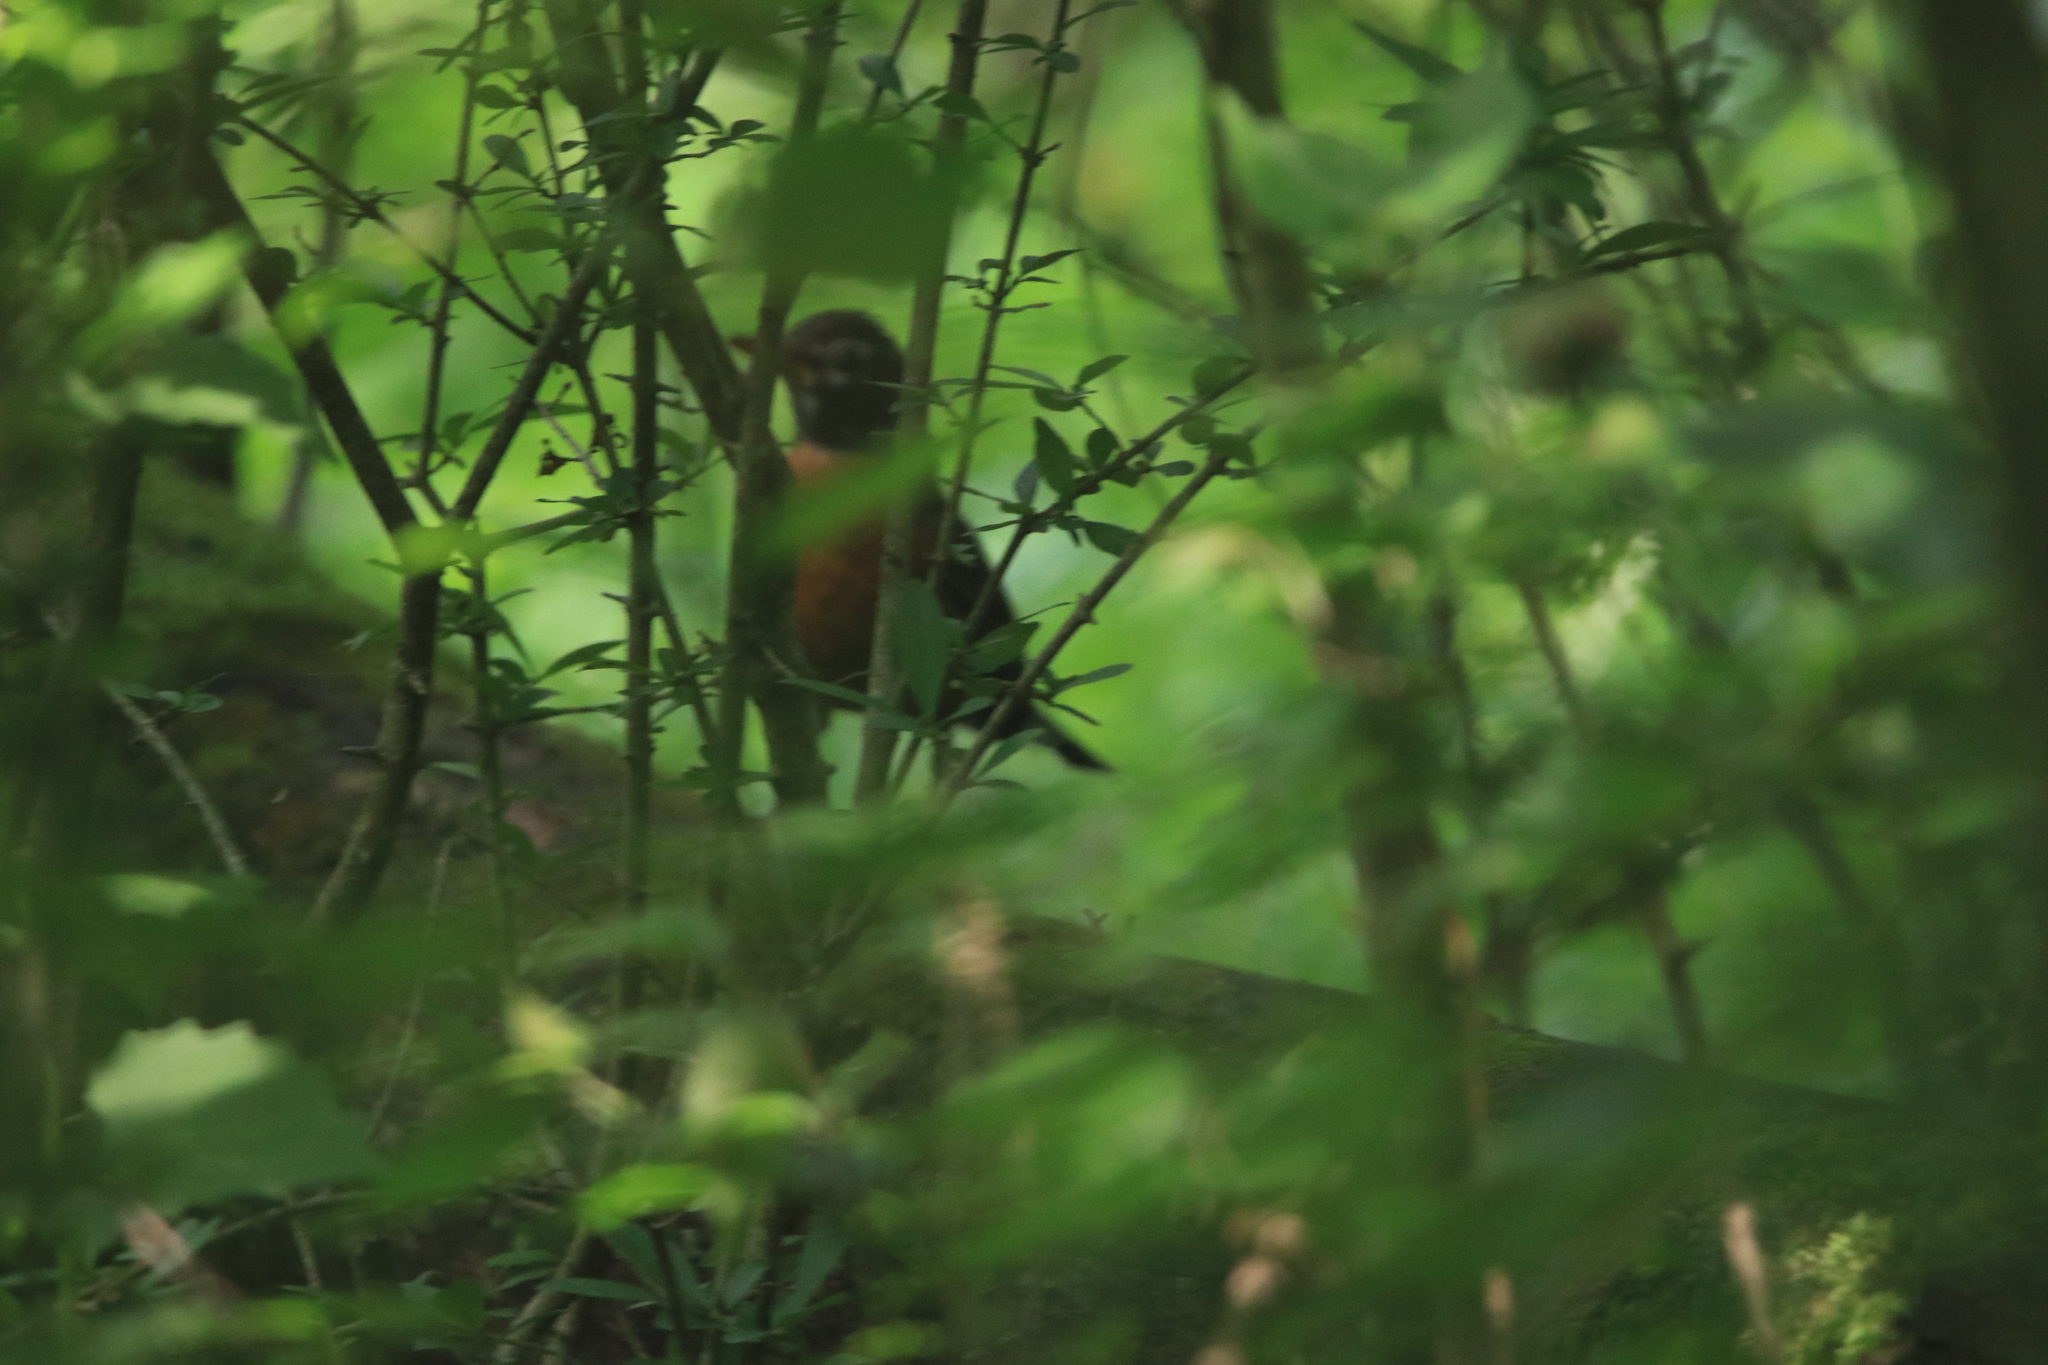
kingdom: Animalia
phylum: Chordata
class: Aves
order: Passeriformes
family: Turdidae
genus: Turdus
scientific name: Turdus migratorius
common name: American robin
